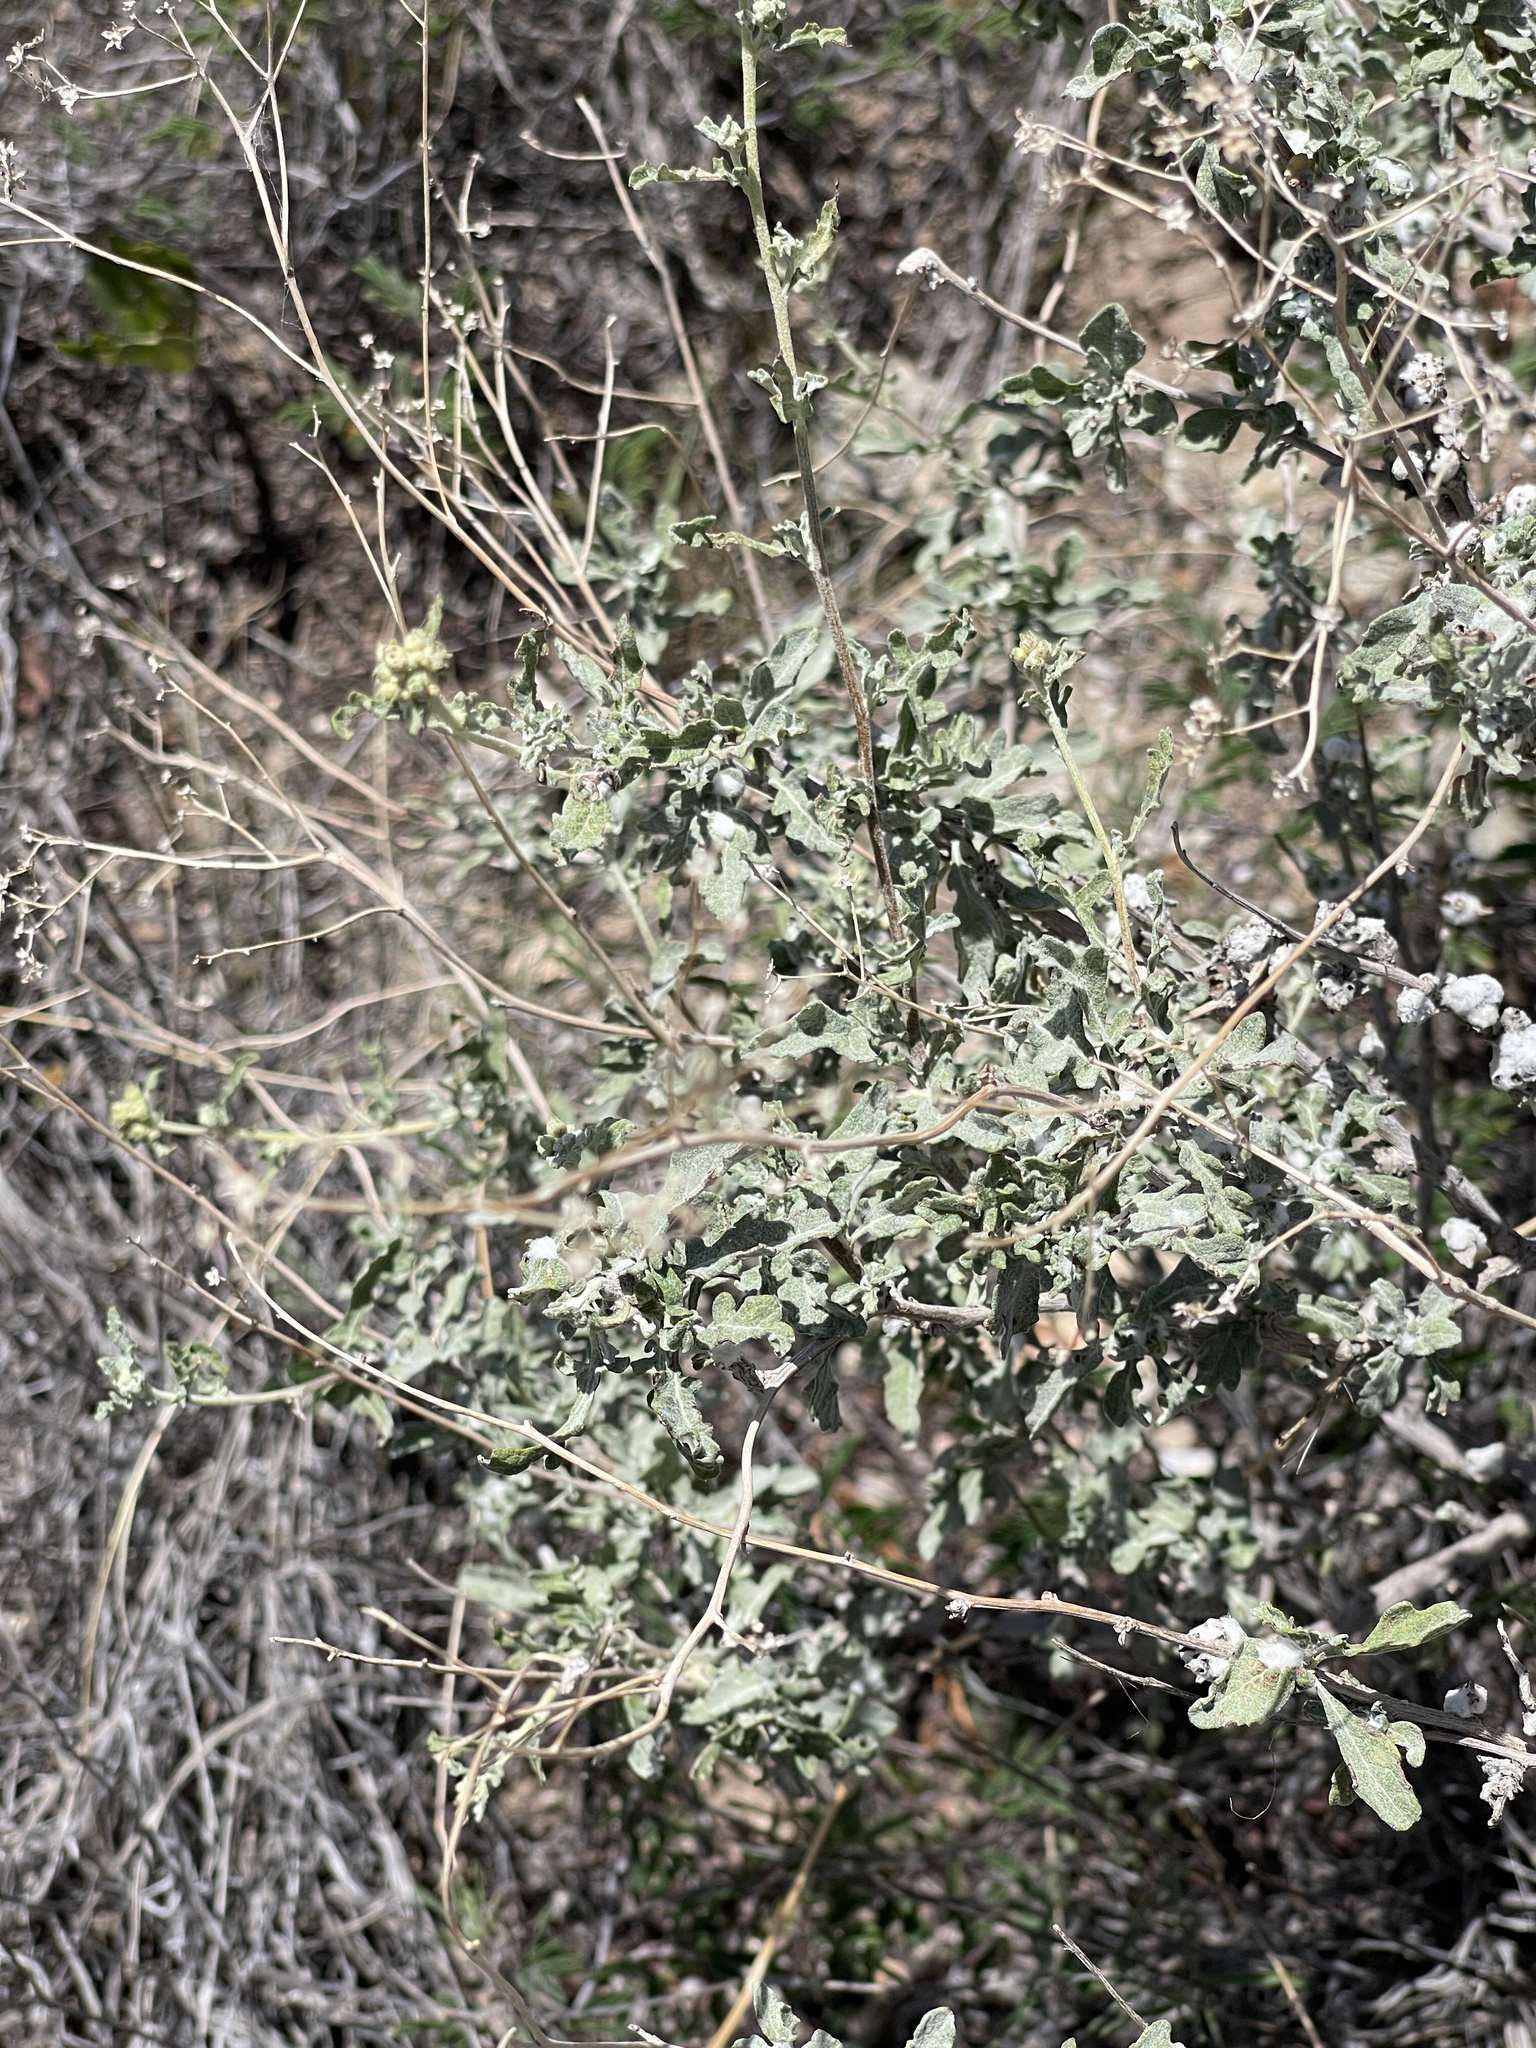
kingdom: Plantae
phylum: Tracheophyta
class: Magnoliopsida
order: Asterales
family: Asteraceae
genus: Parthenium
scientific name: Parthenium incanum
